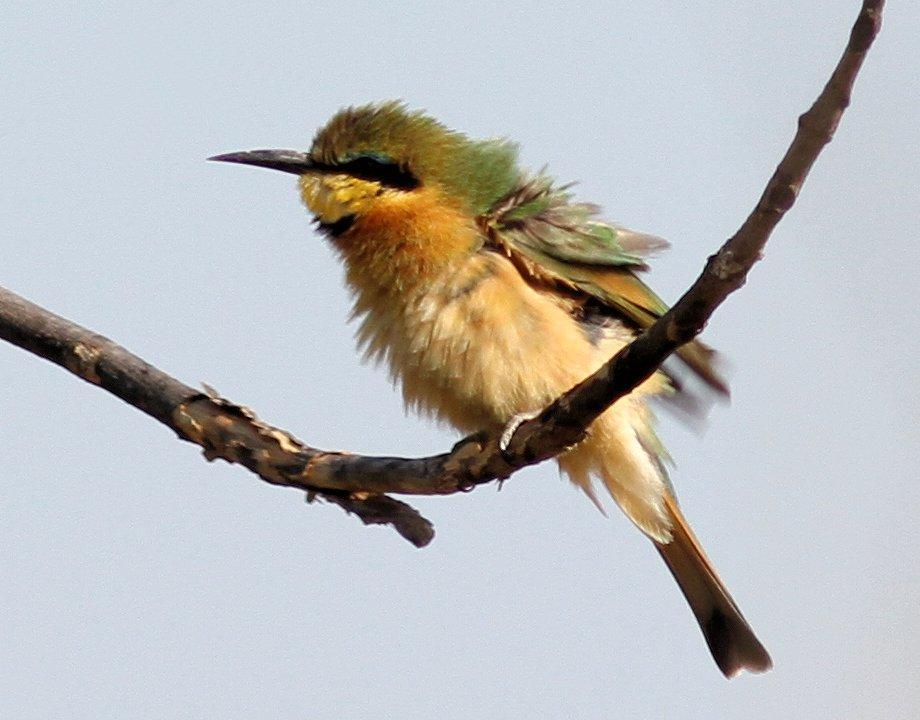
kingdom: Animalia
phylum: Chordata
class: Aves
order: Coraciiformes
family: Meropidae
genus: Merops
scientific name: Merops pusillus
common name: Little bee-eater
